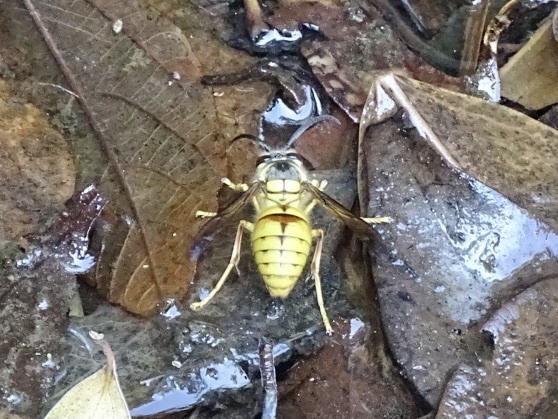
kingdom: Animalia
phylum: Arthropoda
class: Insecta
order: Hymenoptera
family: Vespidae
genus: Vespa
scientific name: Vespa bicolor
